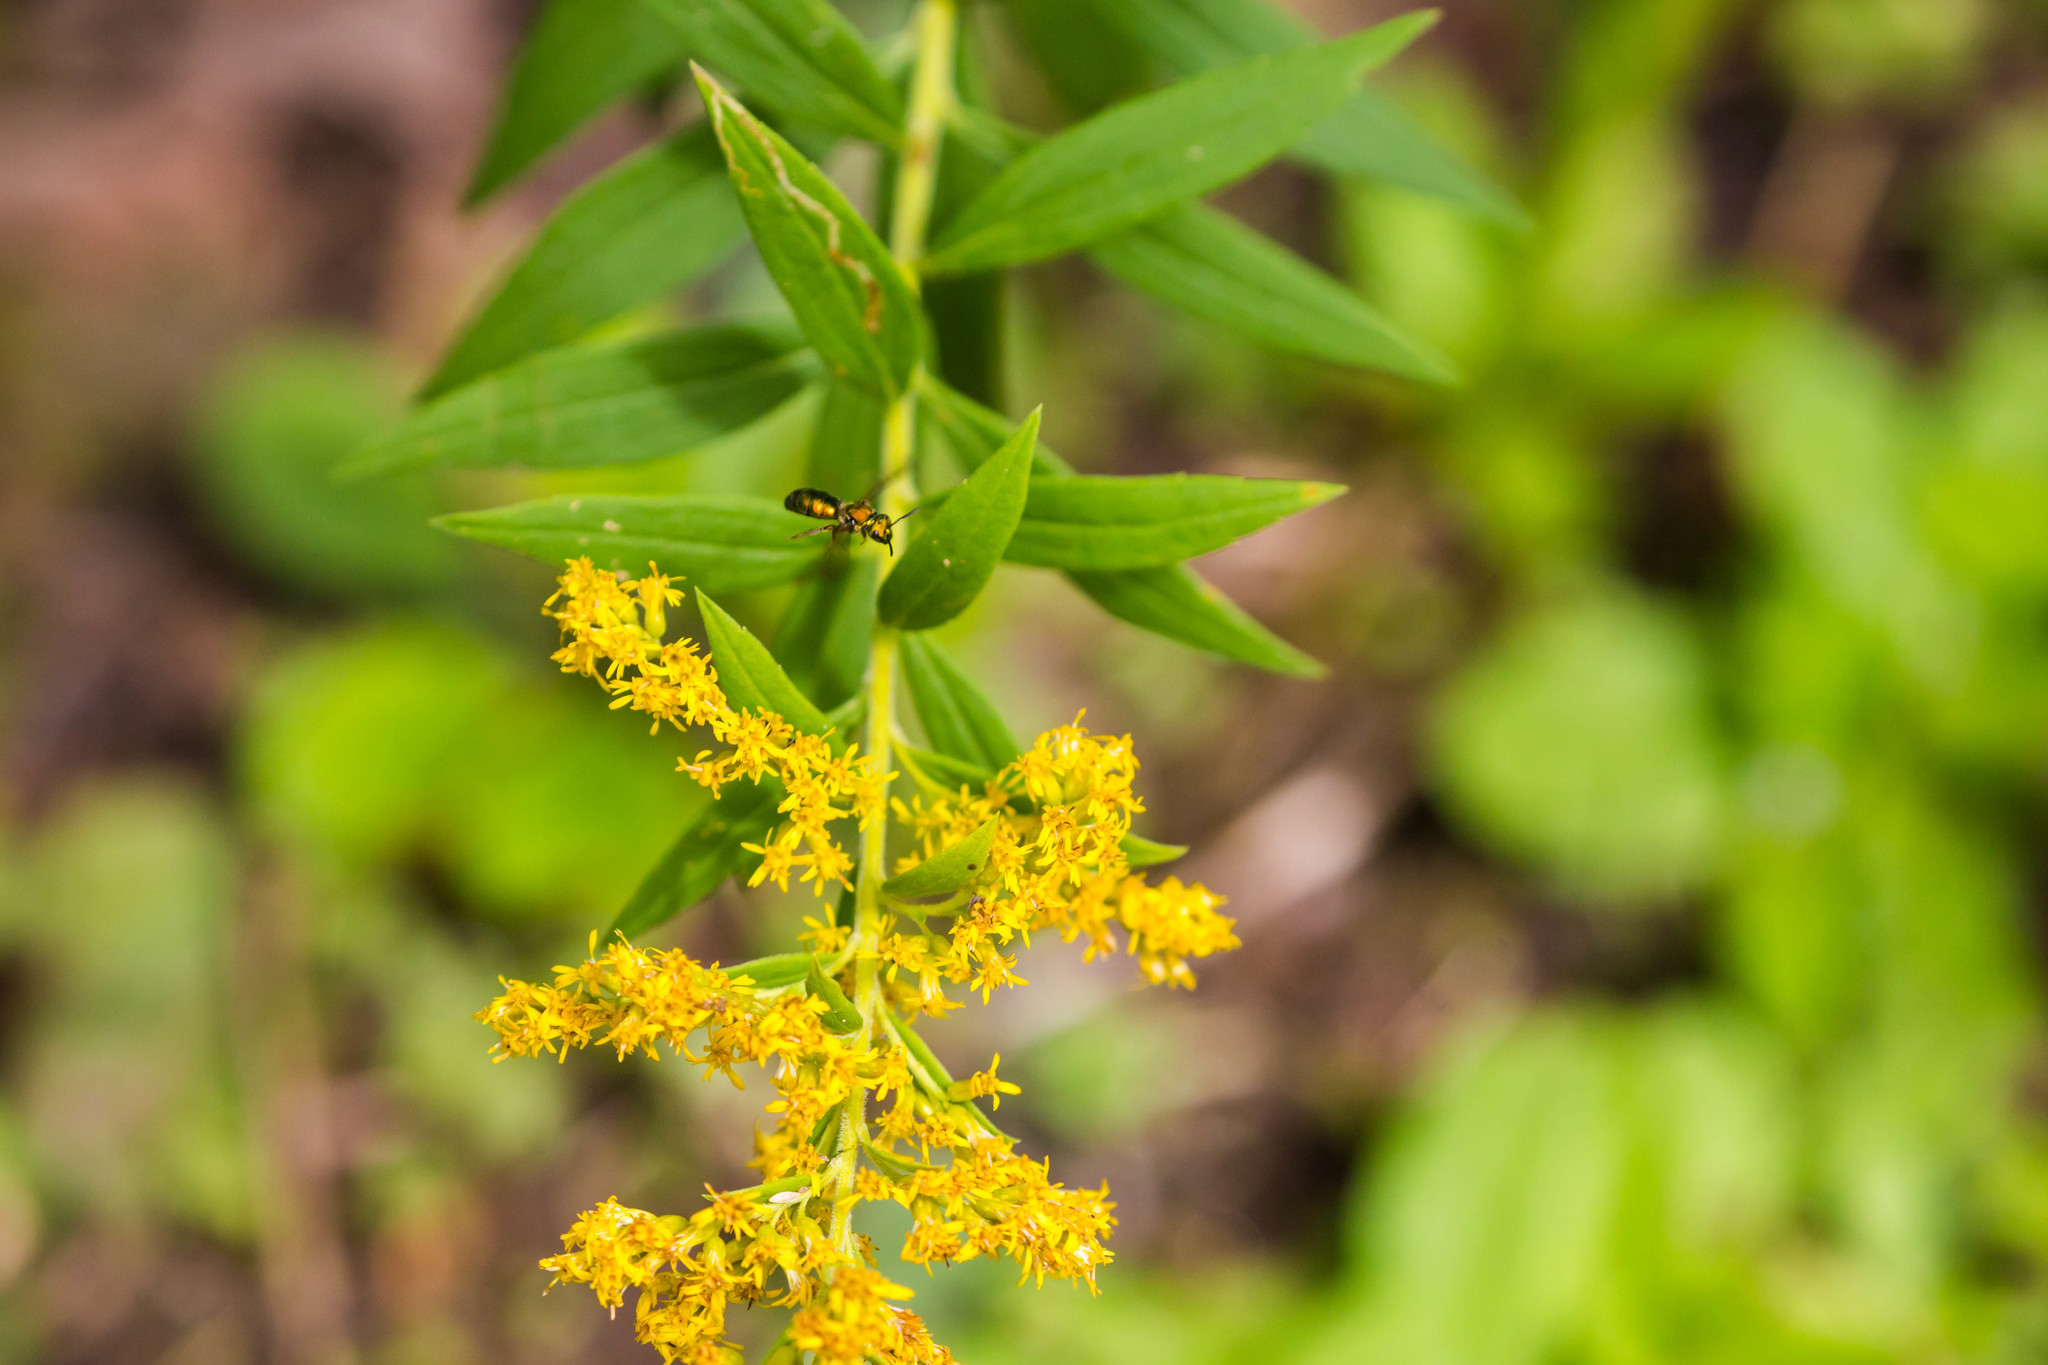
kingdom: Animalia
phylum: Arthropoda
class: Insecta
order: Hymenoptera
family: Halictidae
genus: Augochlora
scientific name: Augochlora pura
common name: Pure green sweat bee
